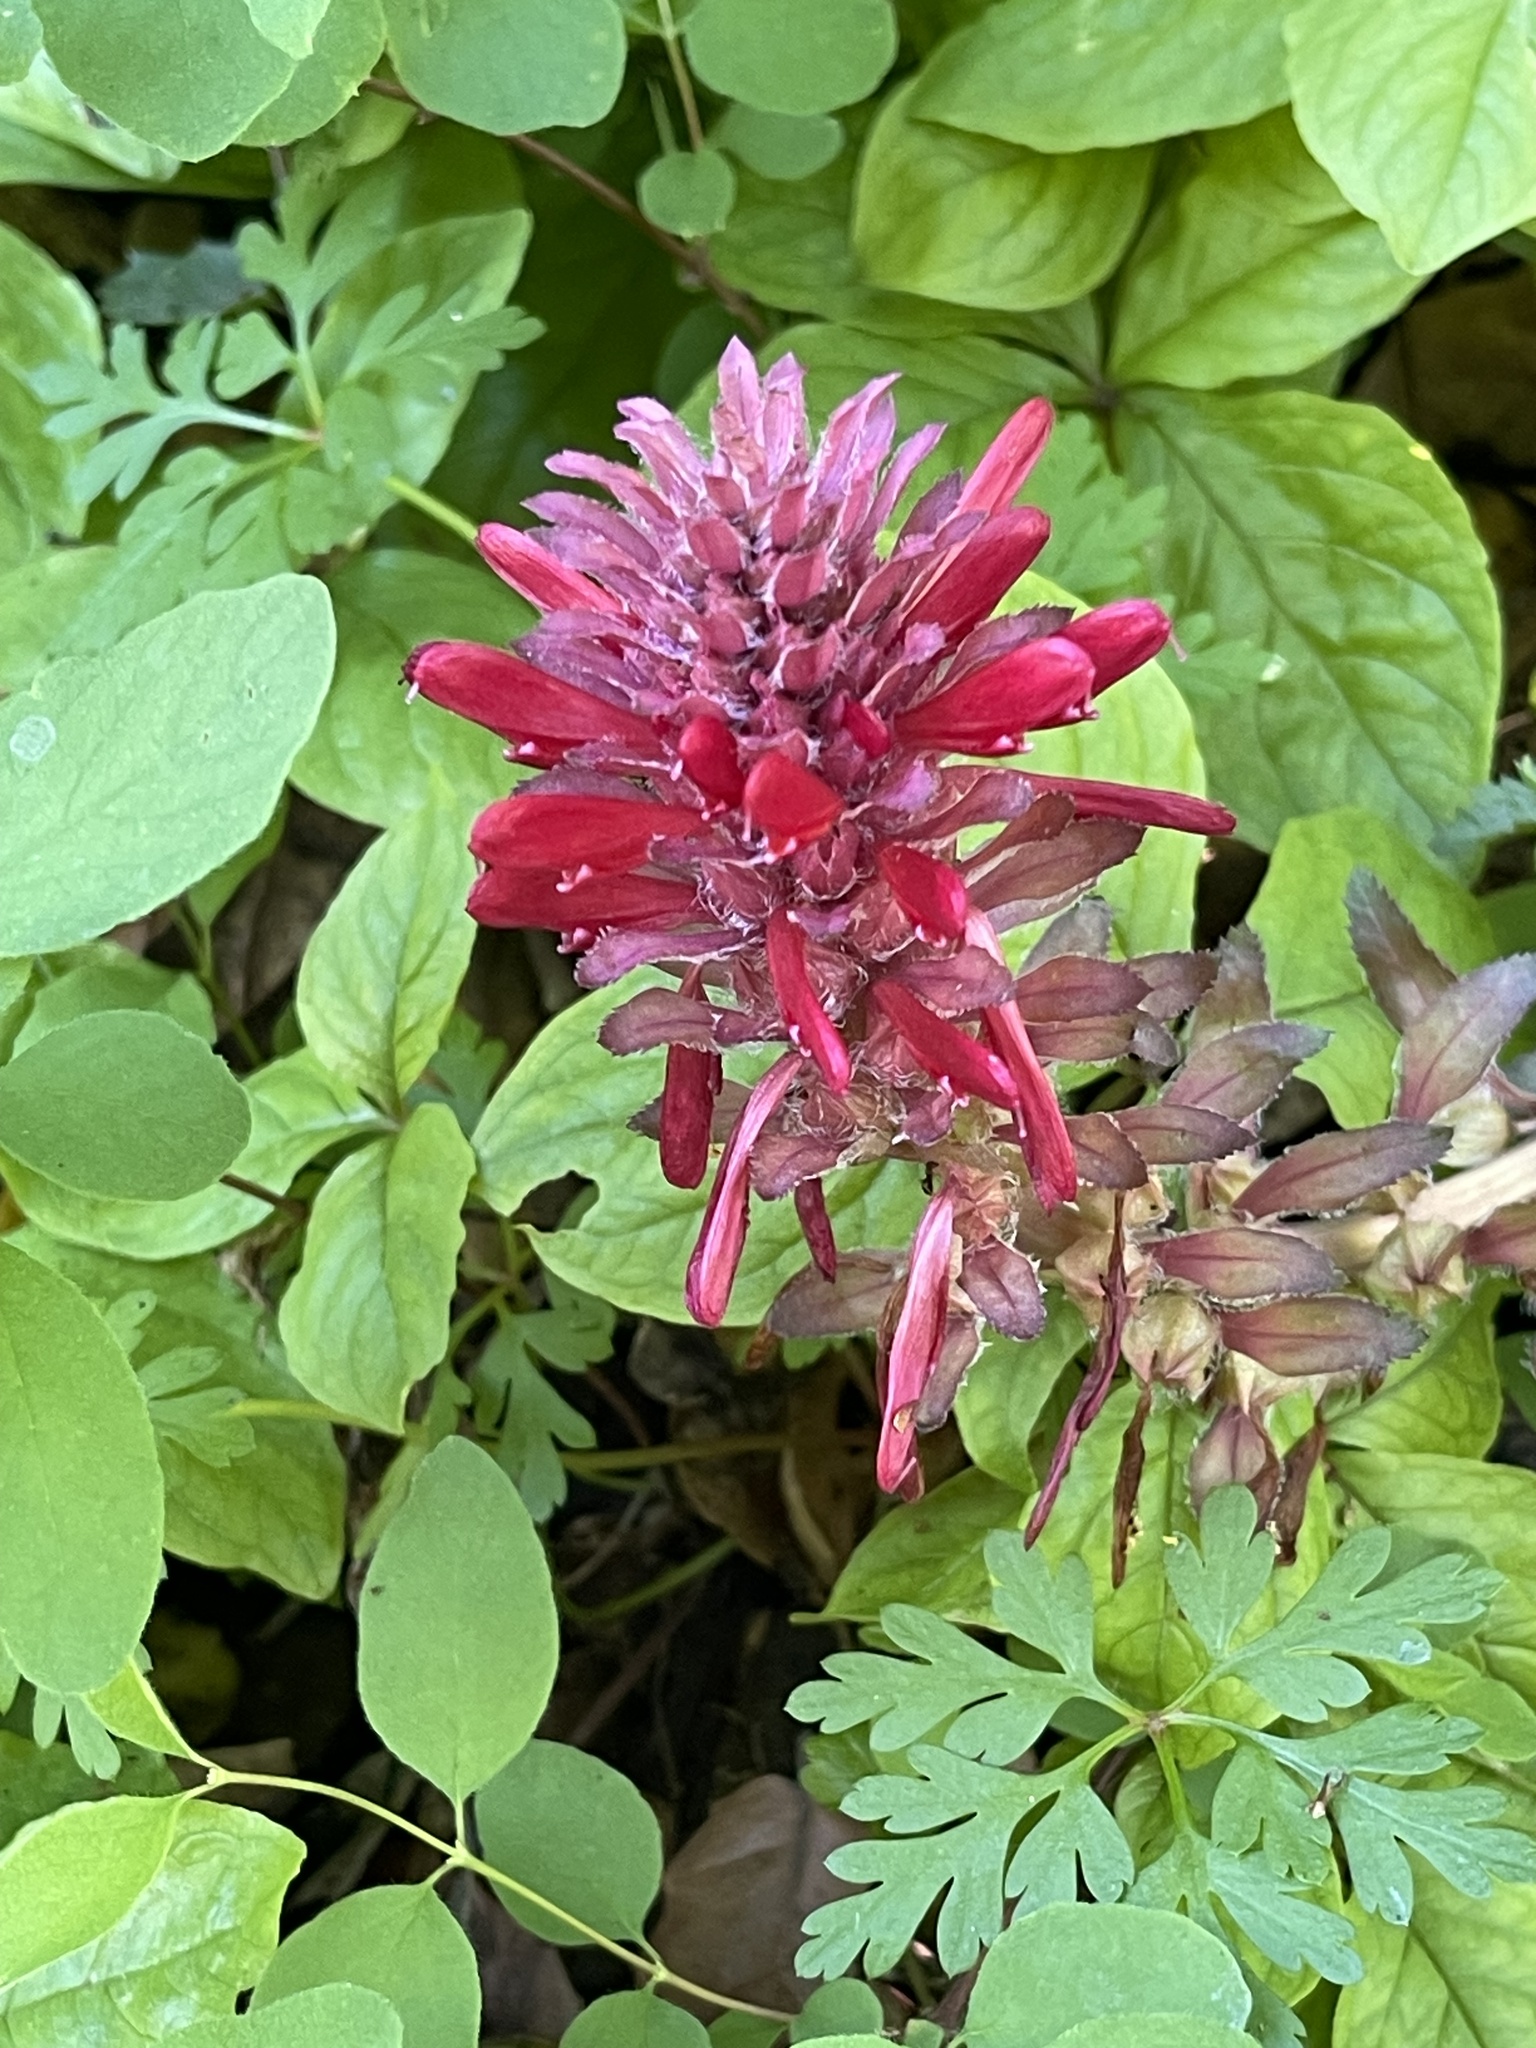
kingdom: Plantae
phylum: Tracheophyta
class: Magnoliopsida
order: Lamiales
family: Orobanchaceae
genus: Pedicularis
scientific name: Pedicularis densiflora
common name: Indian warrior
